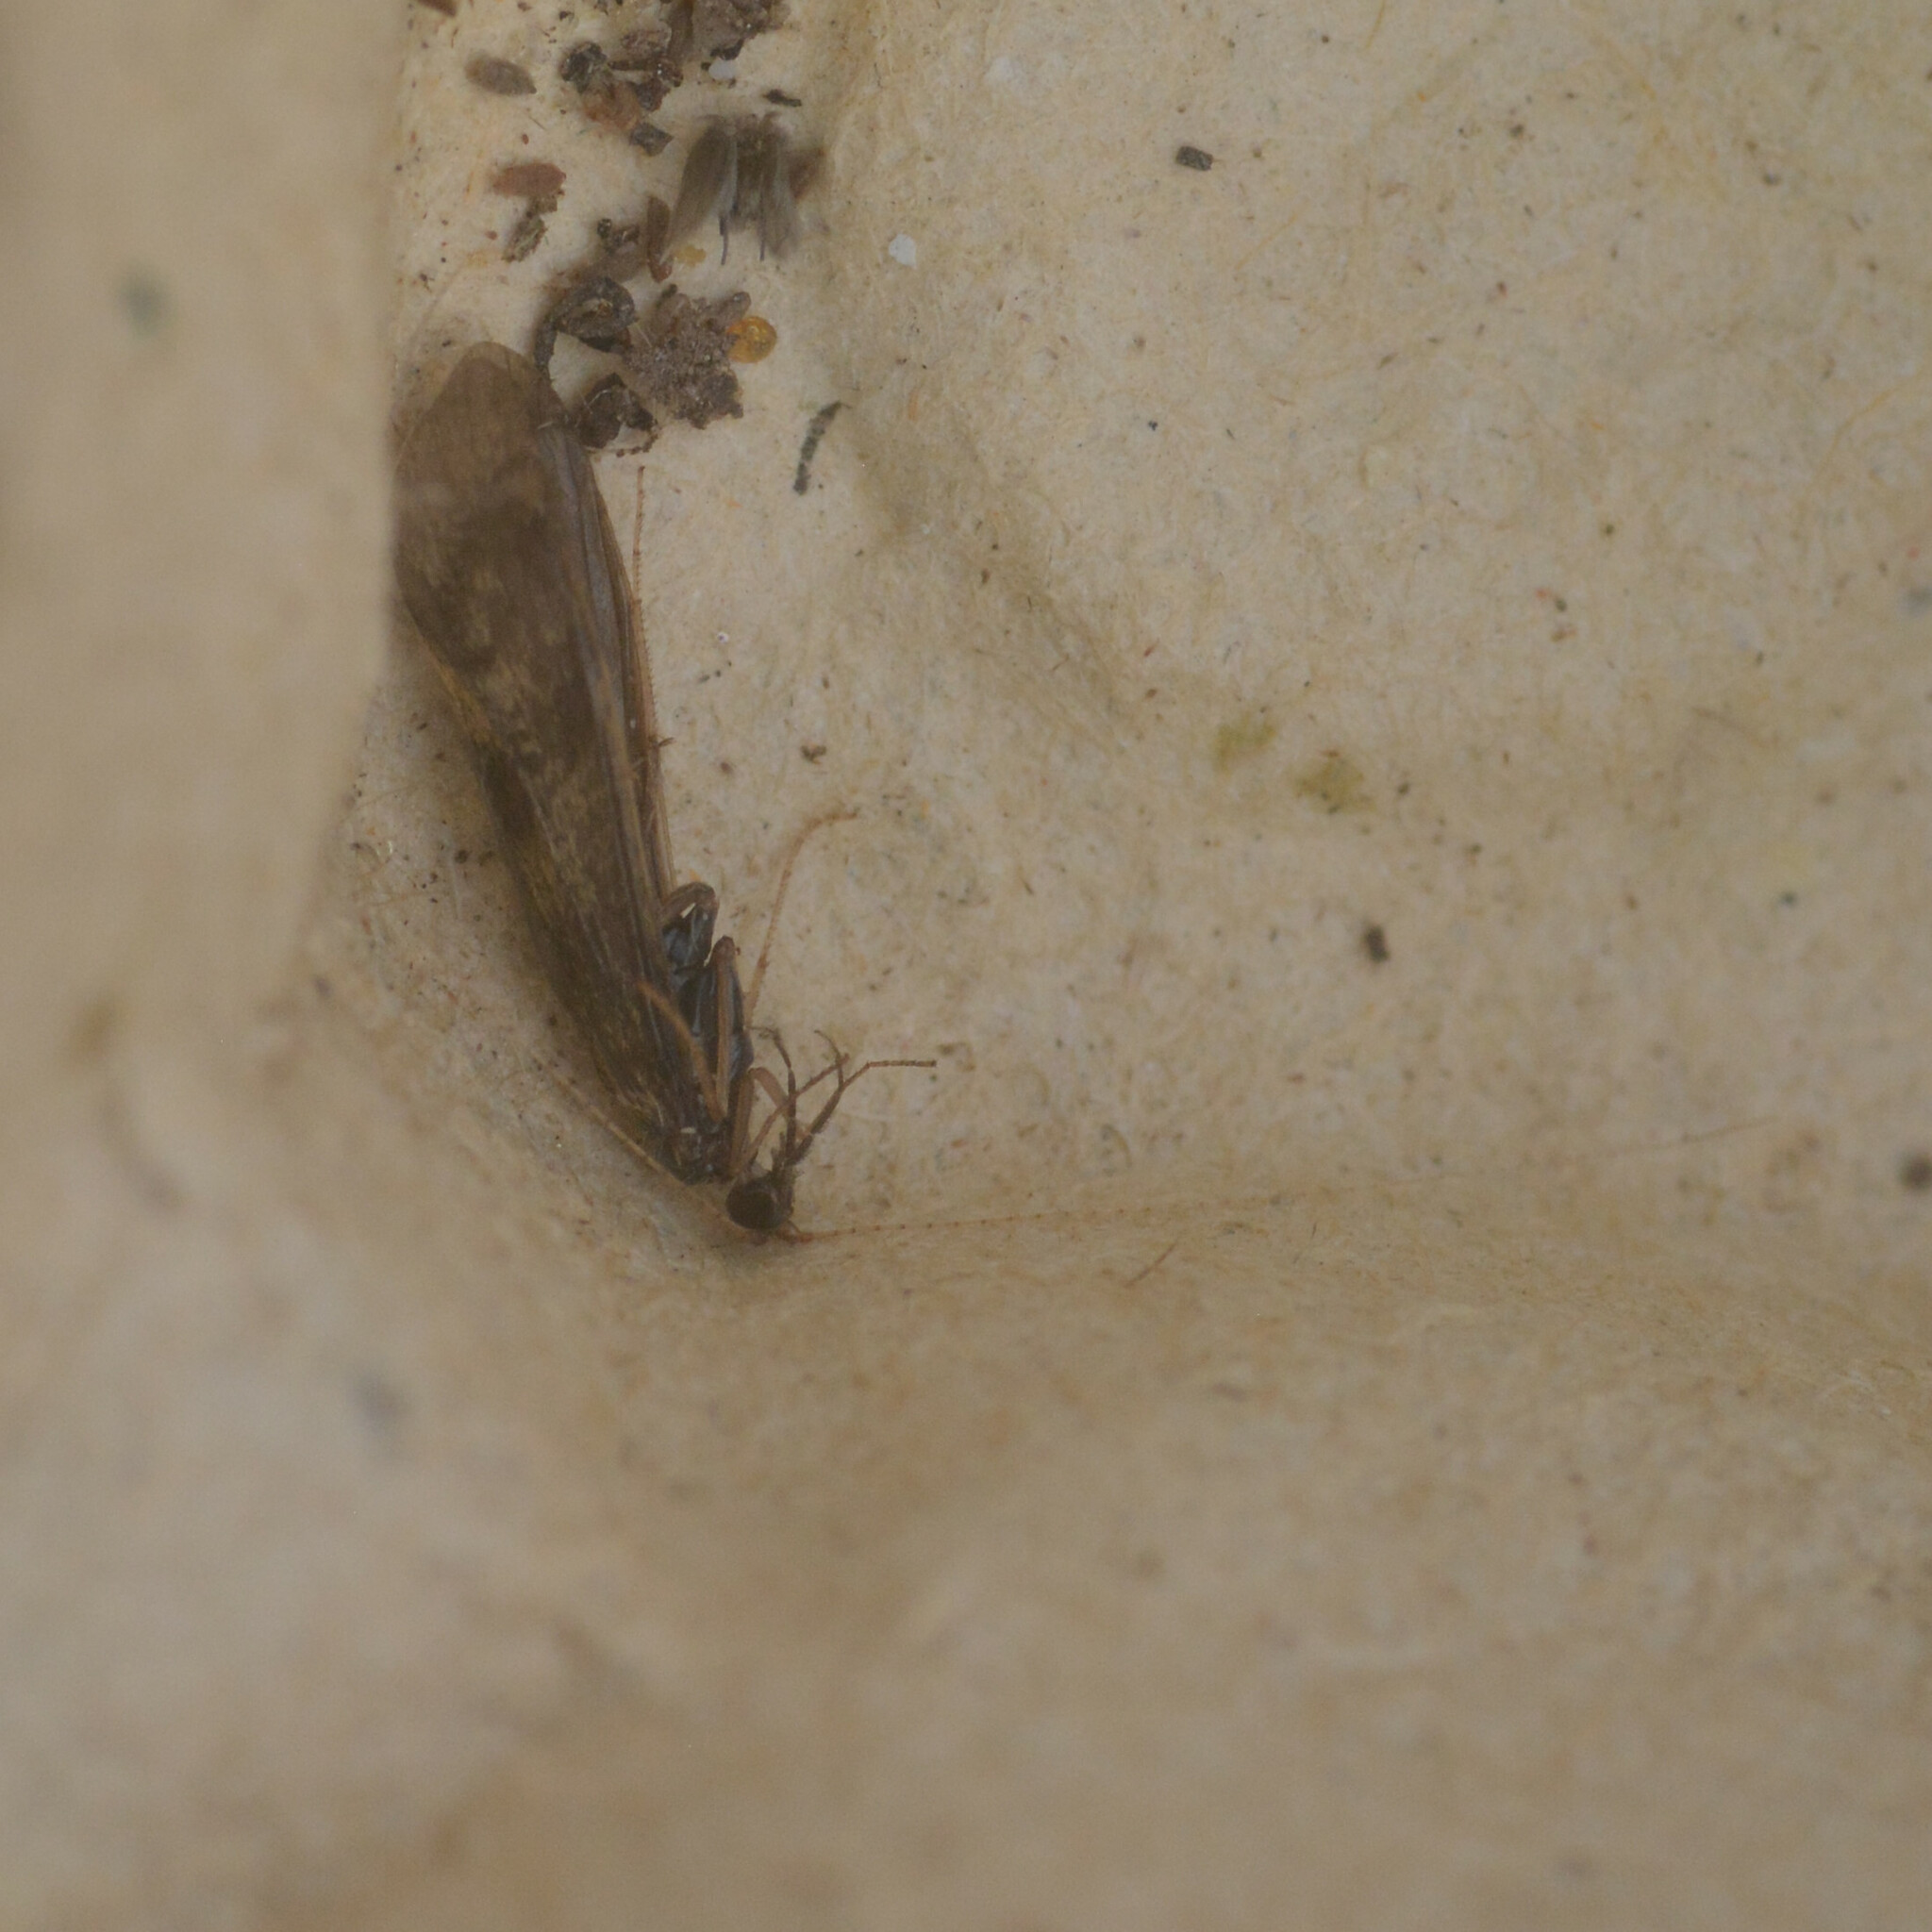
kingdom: Animalia
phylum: Arthropoda
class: Insecta
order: Trichoptera
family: Leptoceridae
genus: Mystacides
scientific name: Mystacides longicornis
